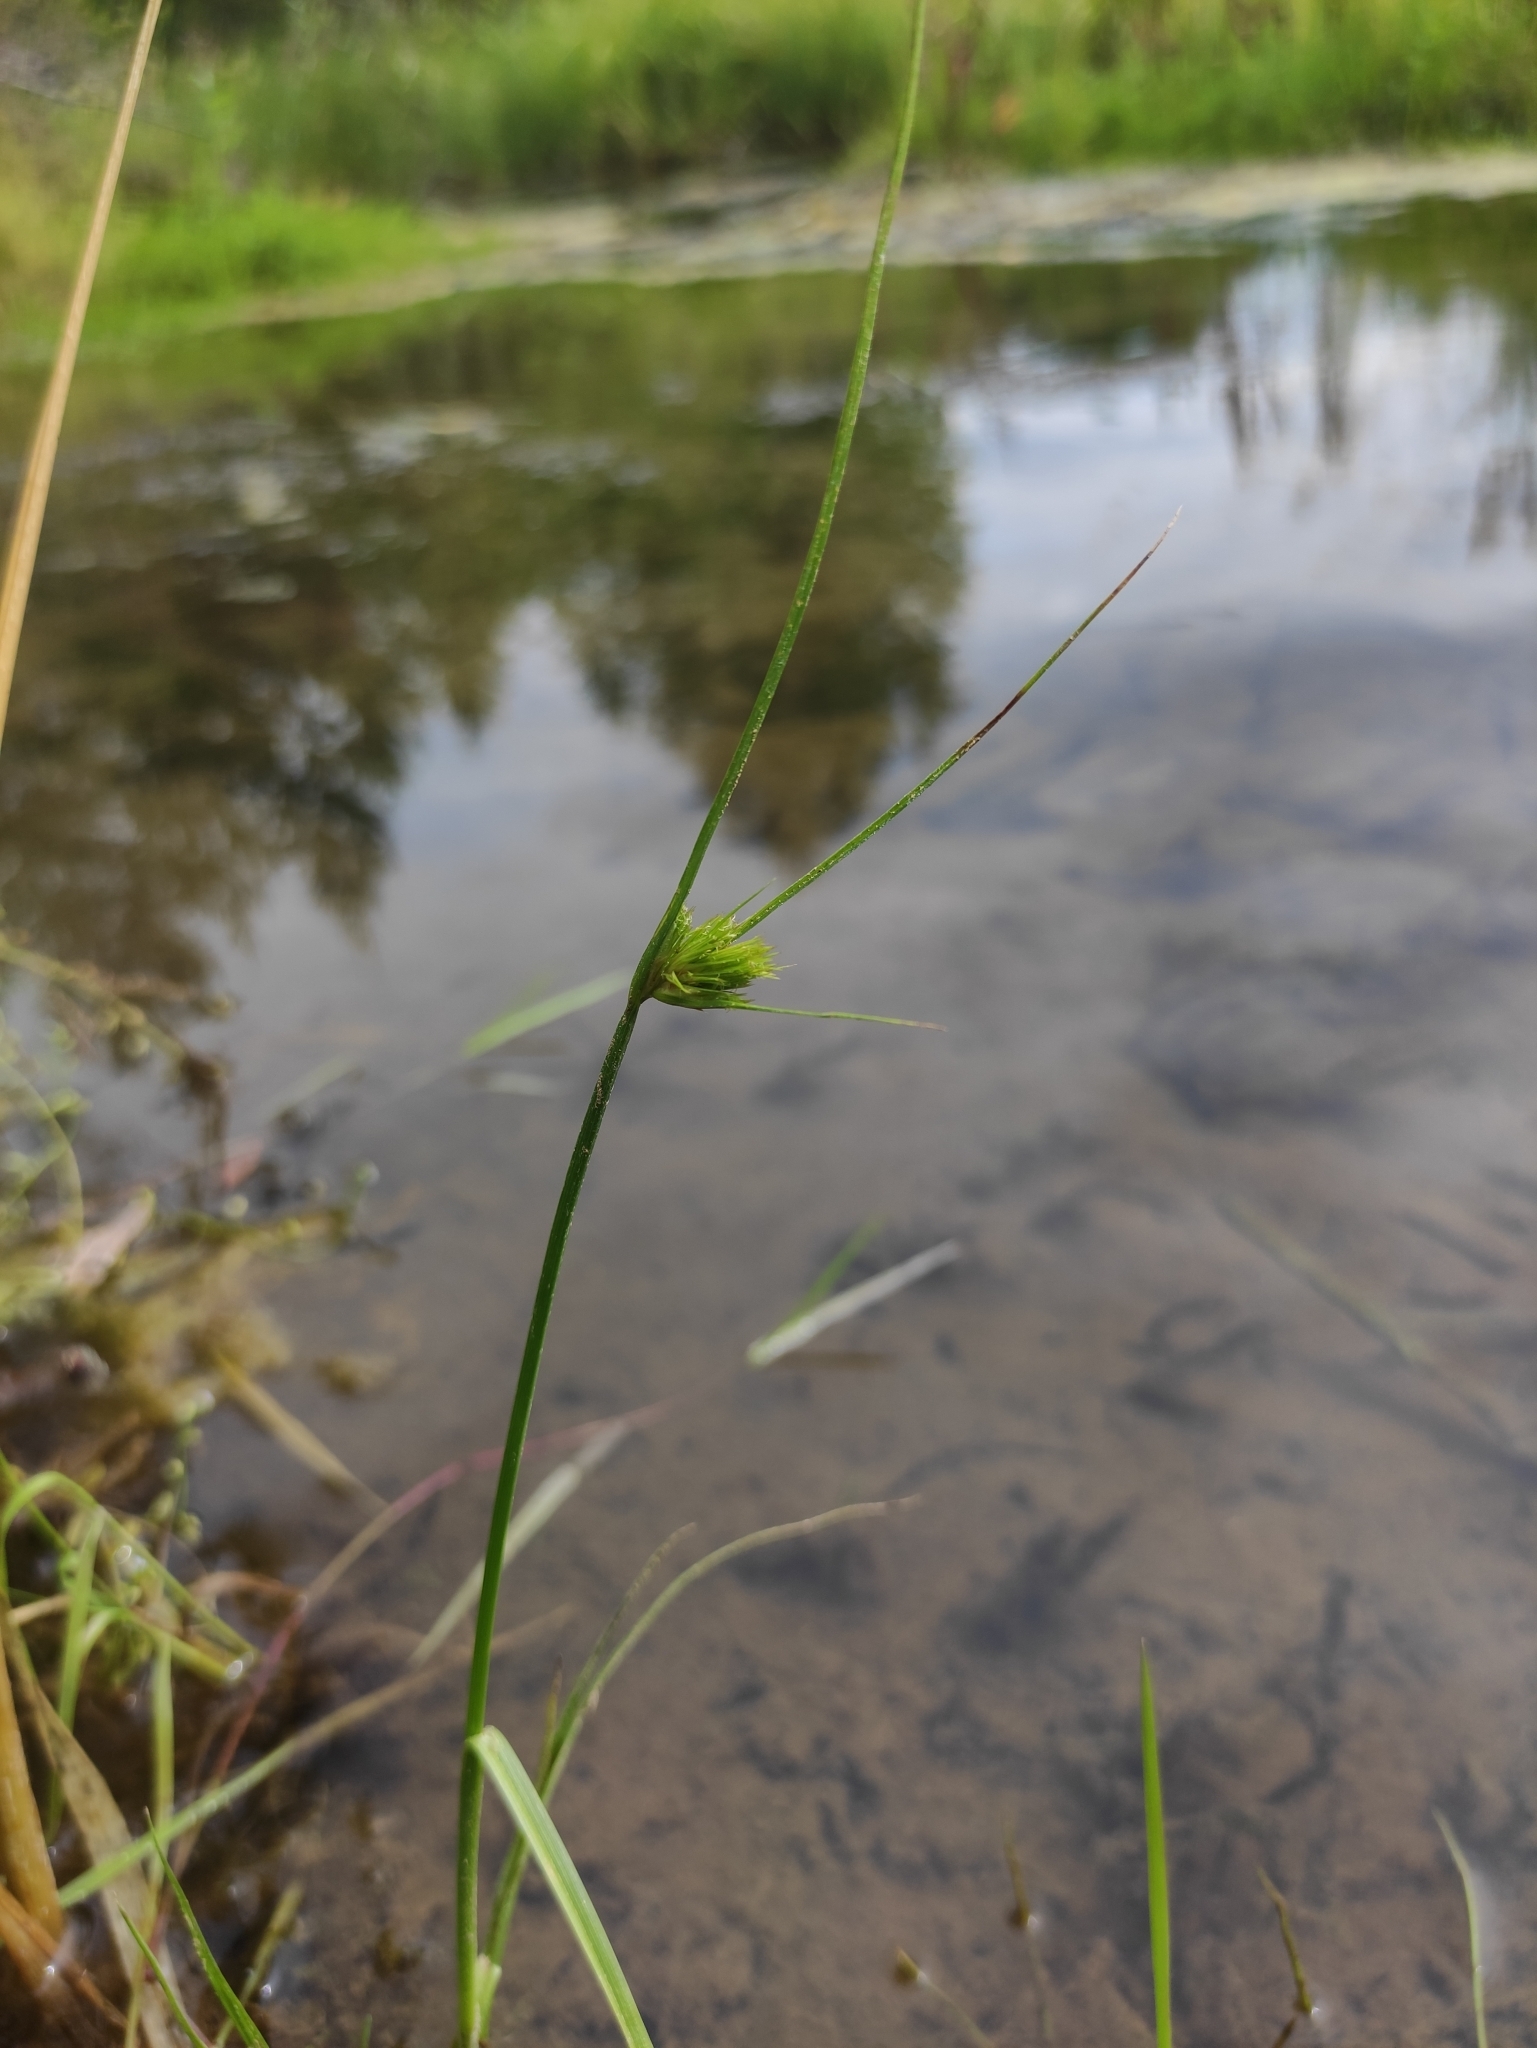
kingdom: Plantae
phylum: Tracheophyta
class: Liliopsida
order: Poales
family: Cyperaceae
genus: Carex
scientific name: Carex bohemica
